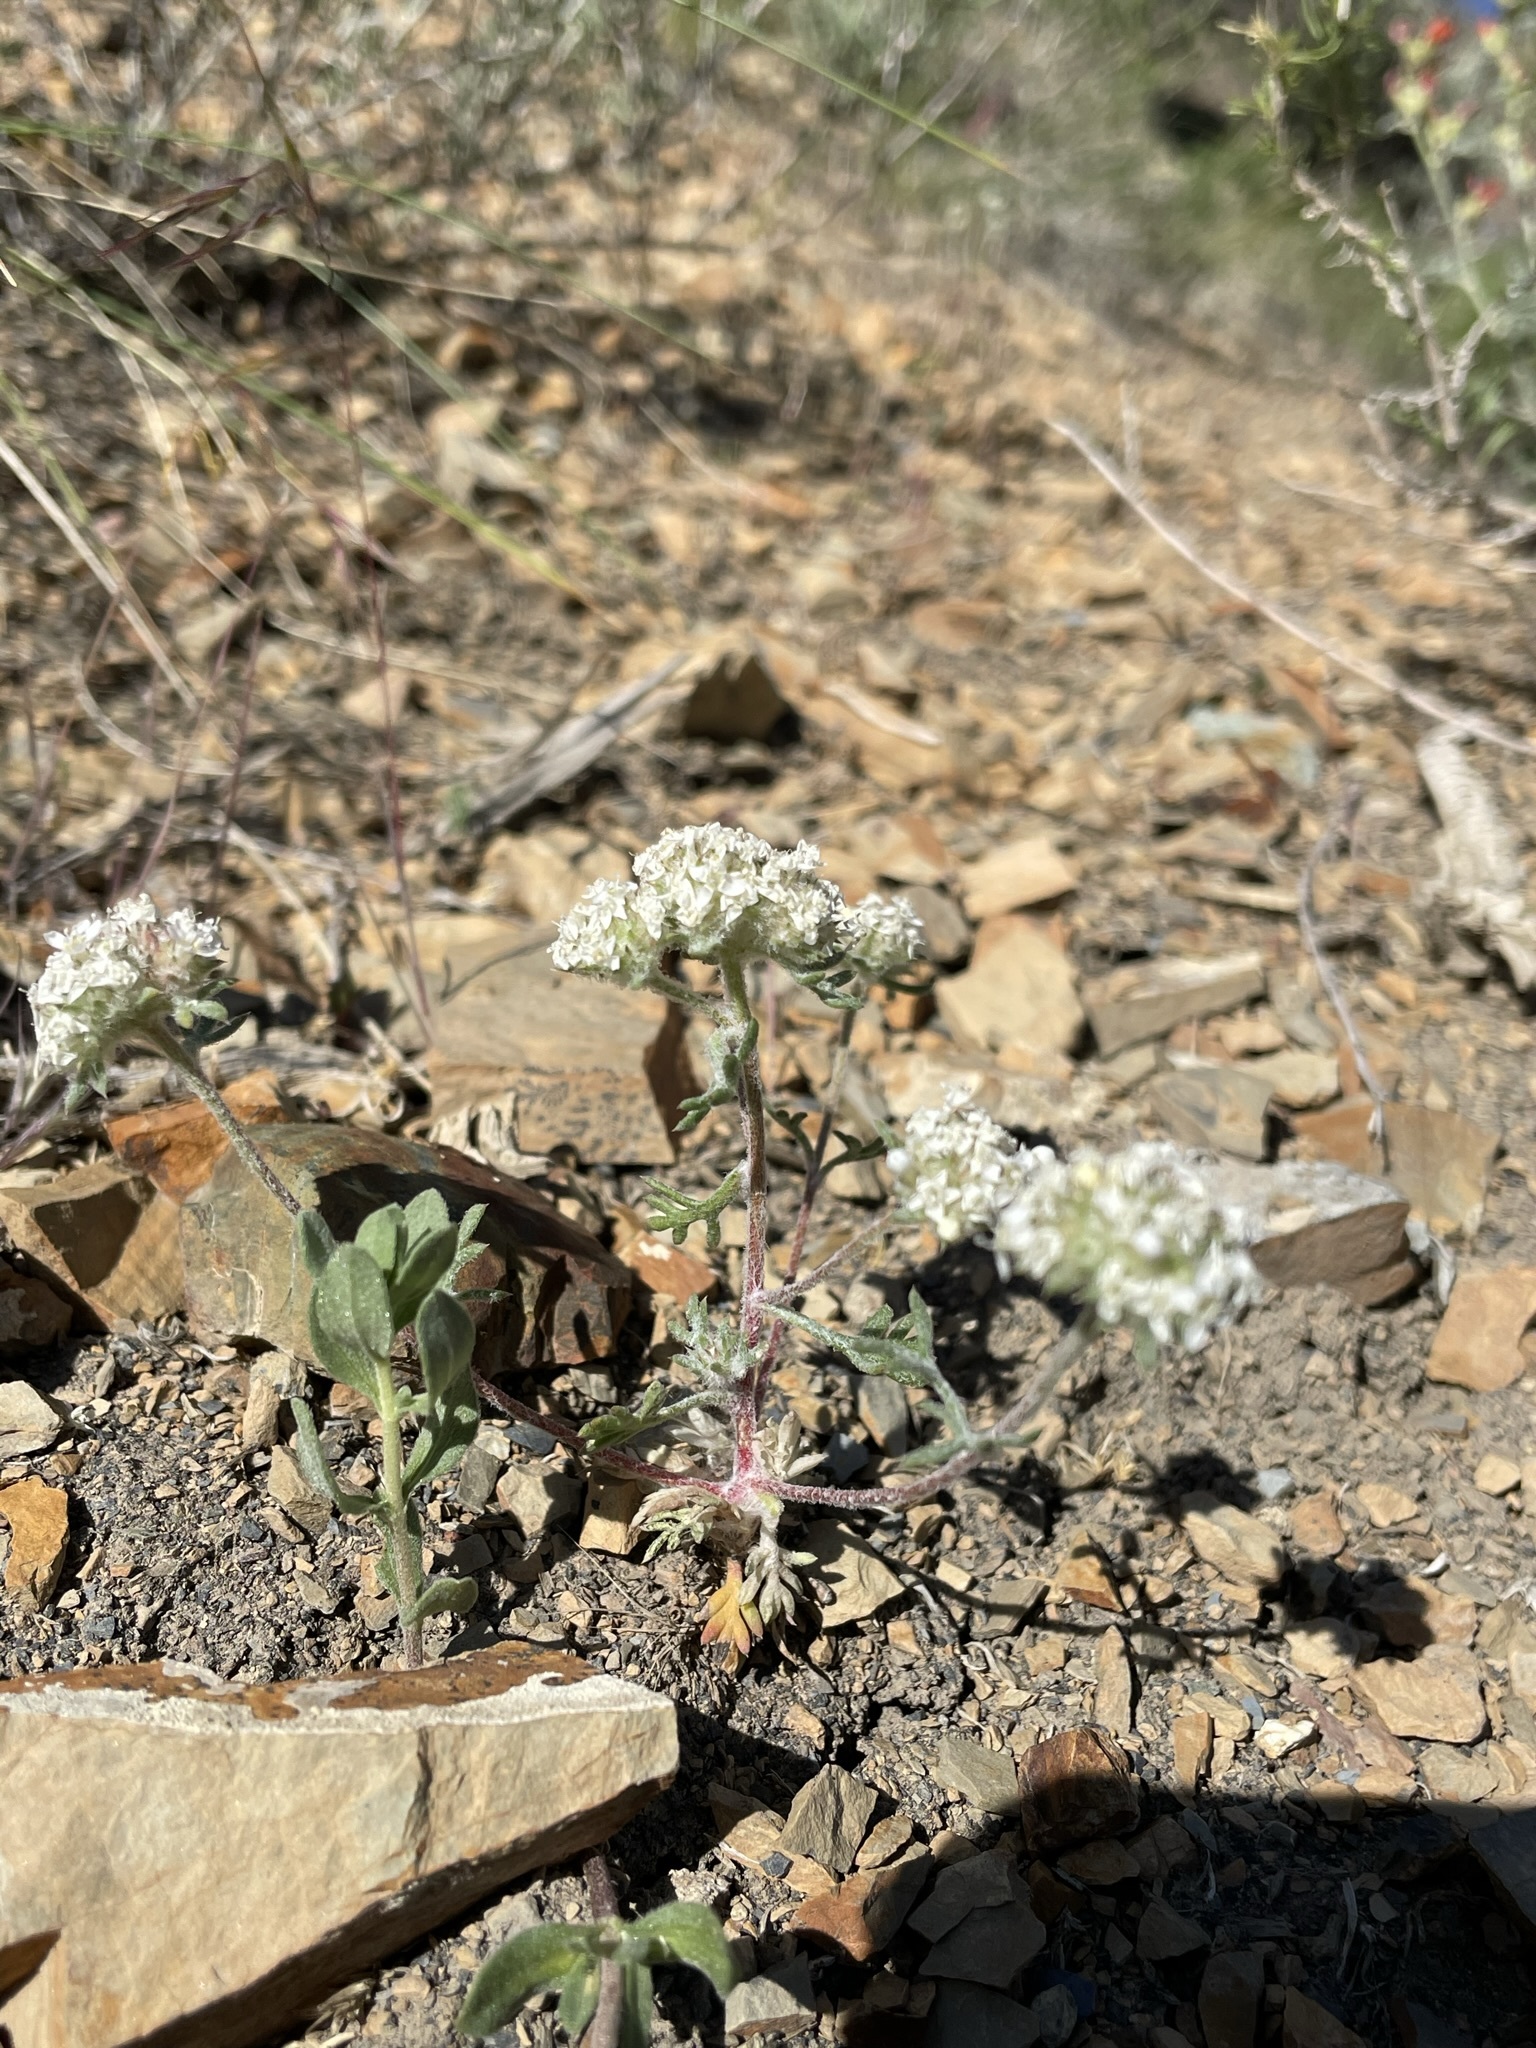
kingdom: Plantae
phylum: Tracheophyta
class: Magnoliopsida
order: Ericales
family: Polemoniaceae
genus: Ipomopsis
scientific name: Ipomopsis congesta
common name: Ball-head gilia
